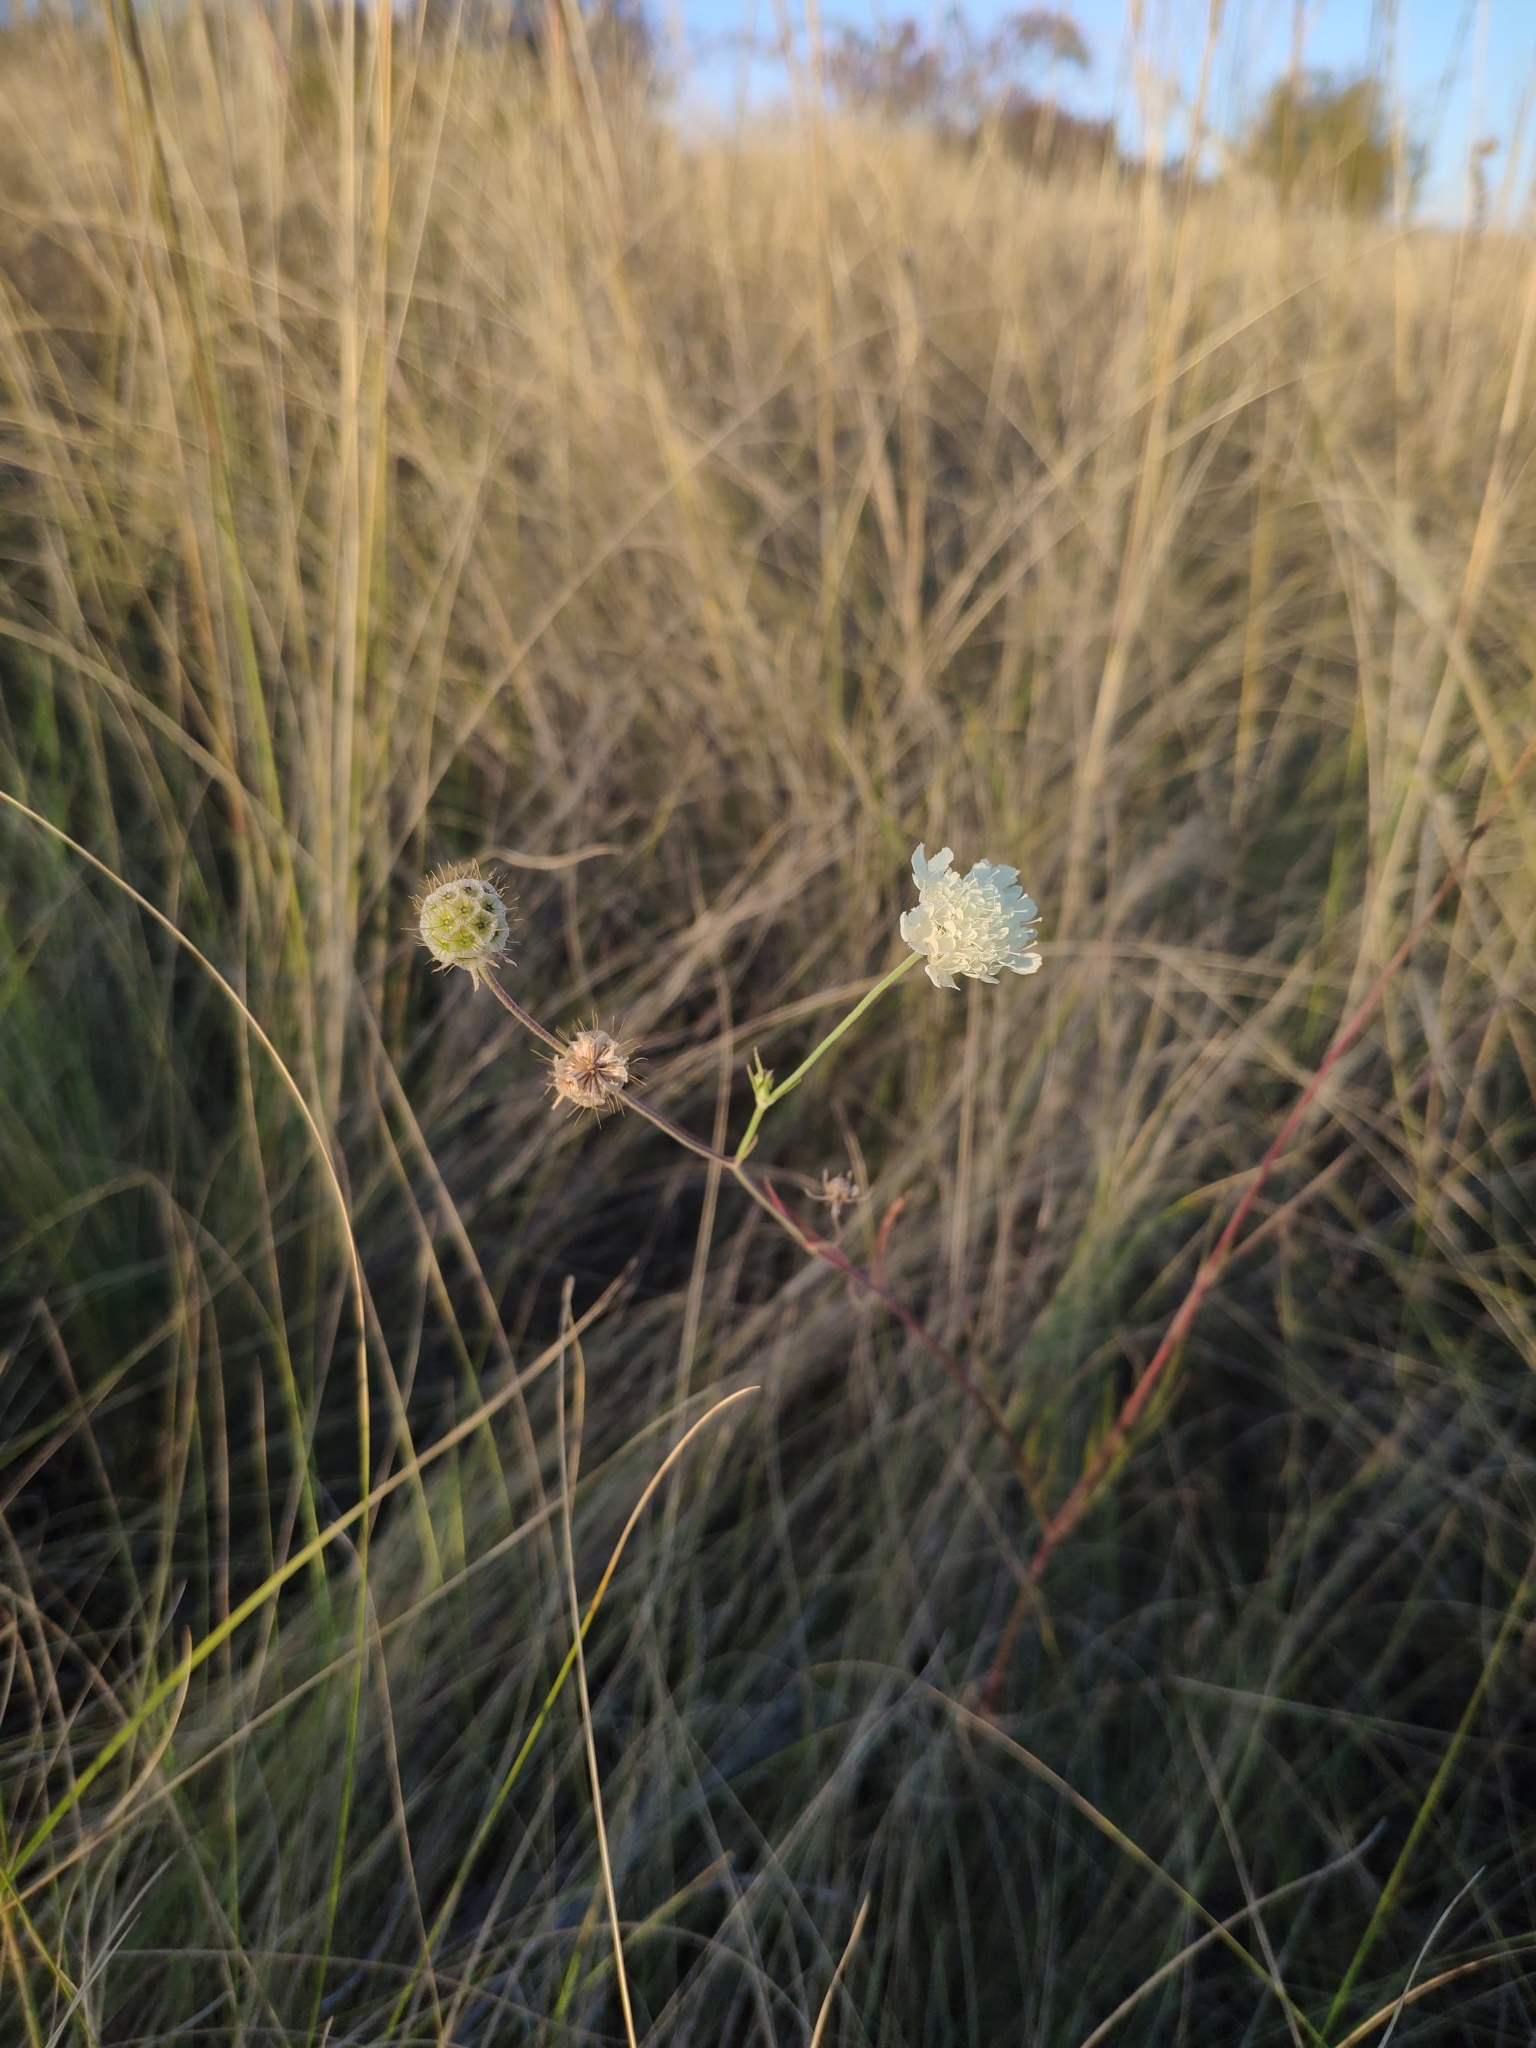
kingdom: Plantae
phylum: Tracheophyta
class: Magnoliopsida
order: Dipsacales
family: Caprifoliaceae
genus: Scabiosa
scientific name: Scabiosa ochroleuca
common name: Cream pincushions
